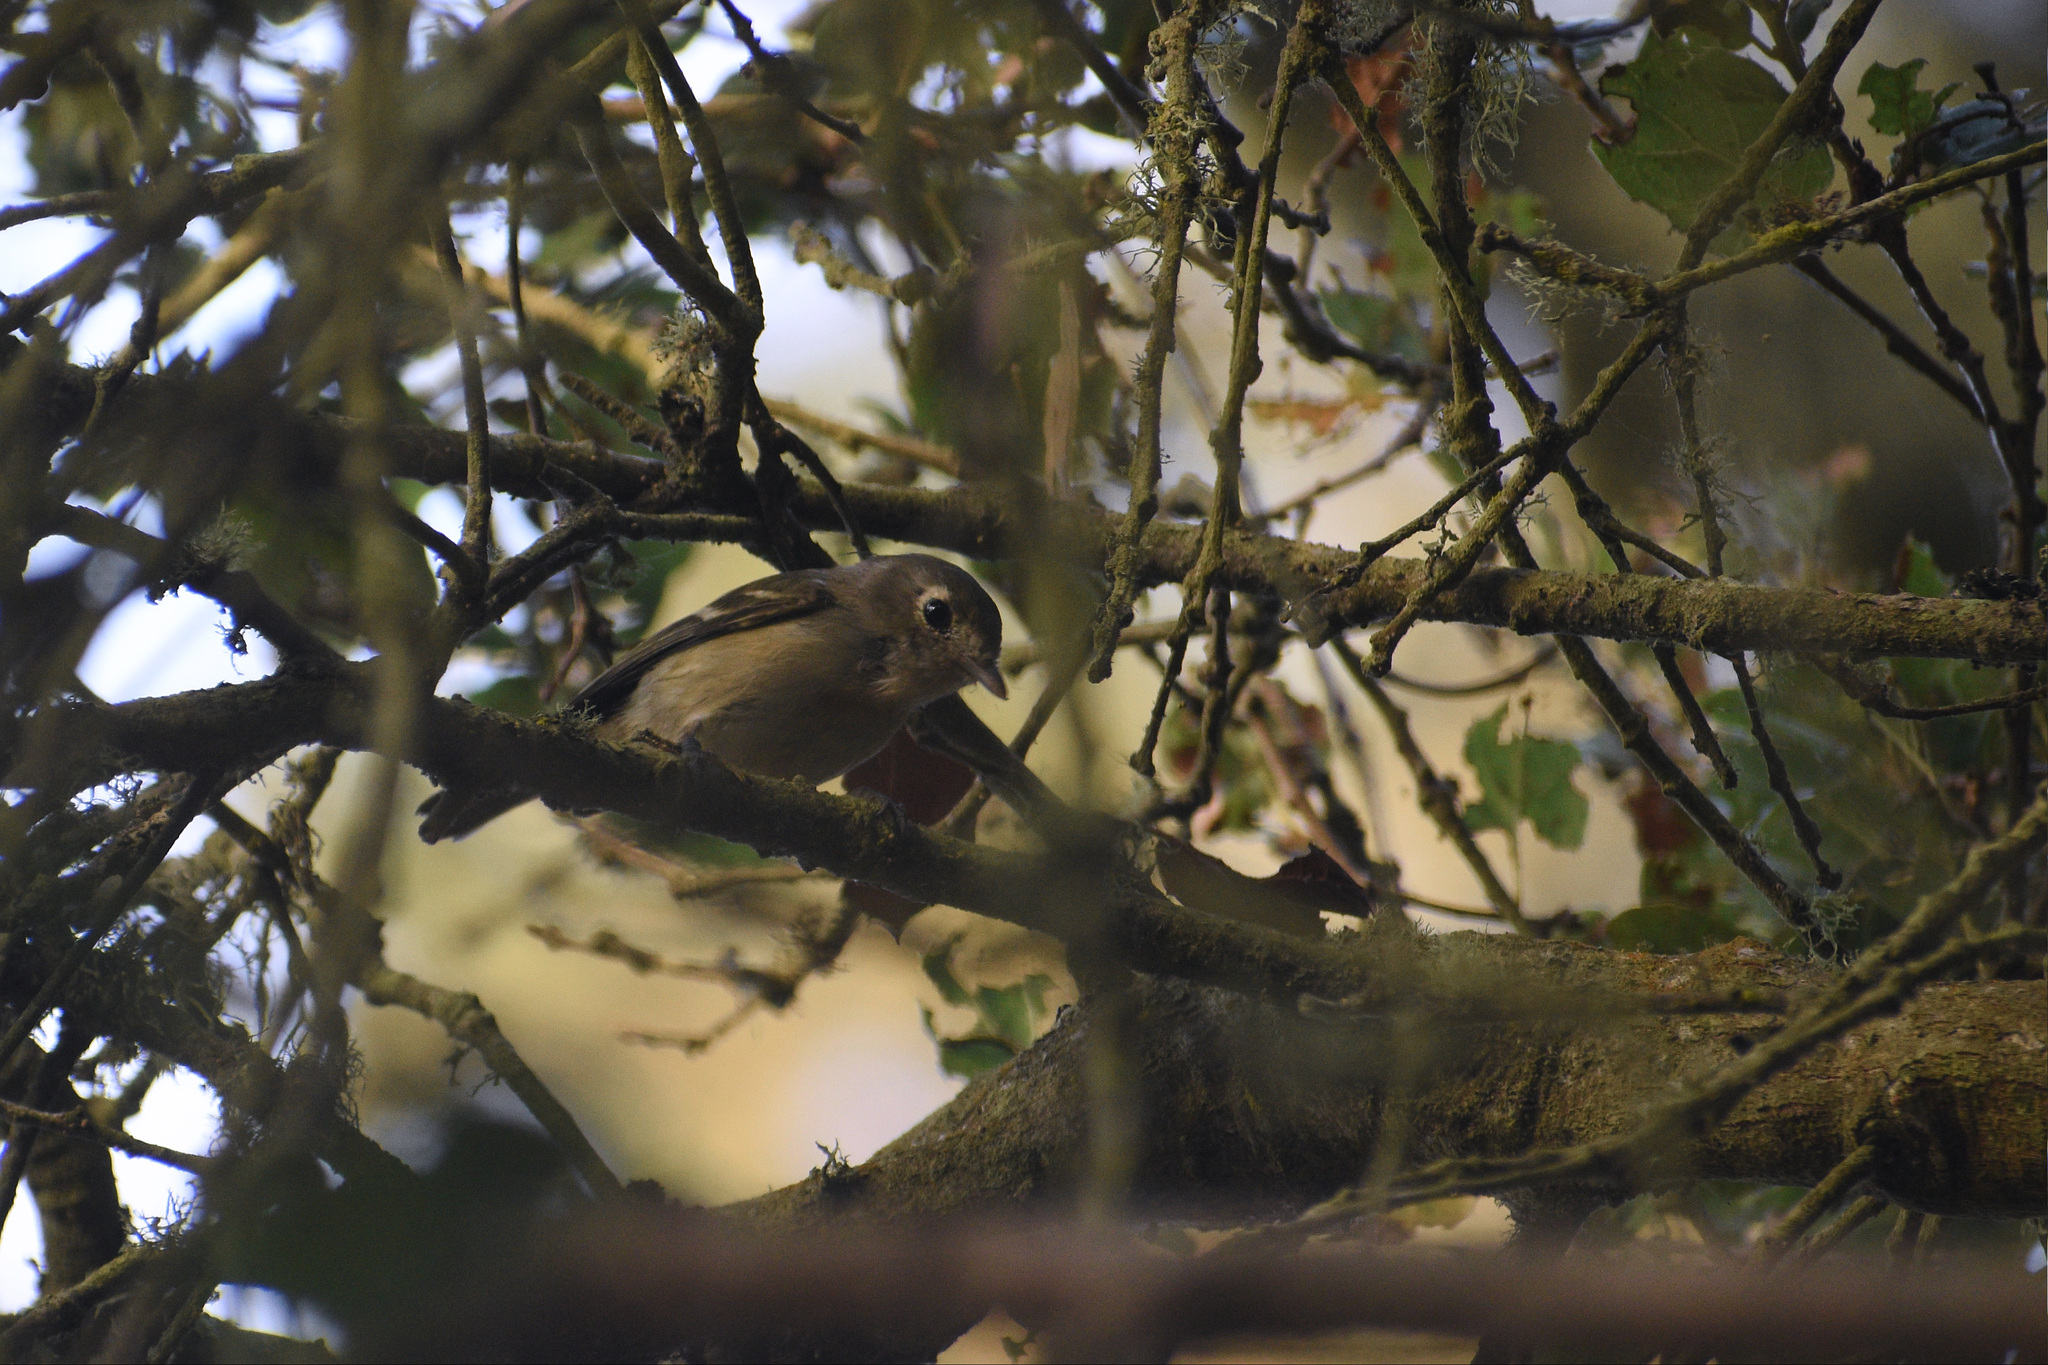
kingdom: Animalia
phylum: Chordata
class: Aves
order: Passeriformes
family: Vireonidae
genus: Vireo
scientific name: Vireo huttoni
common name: Hutton's vireo
